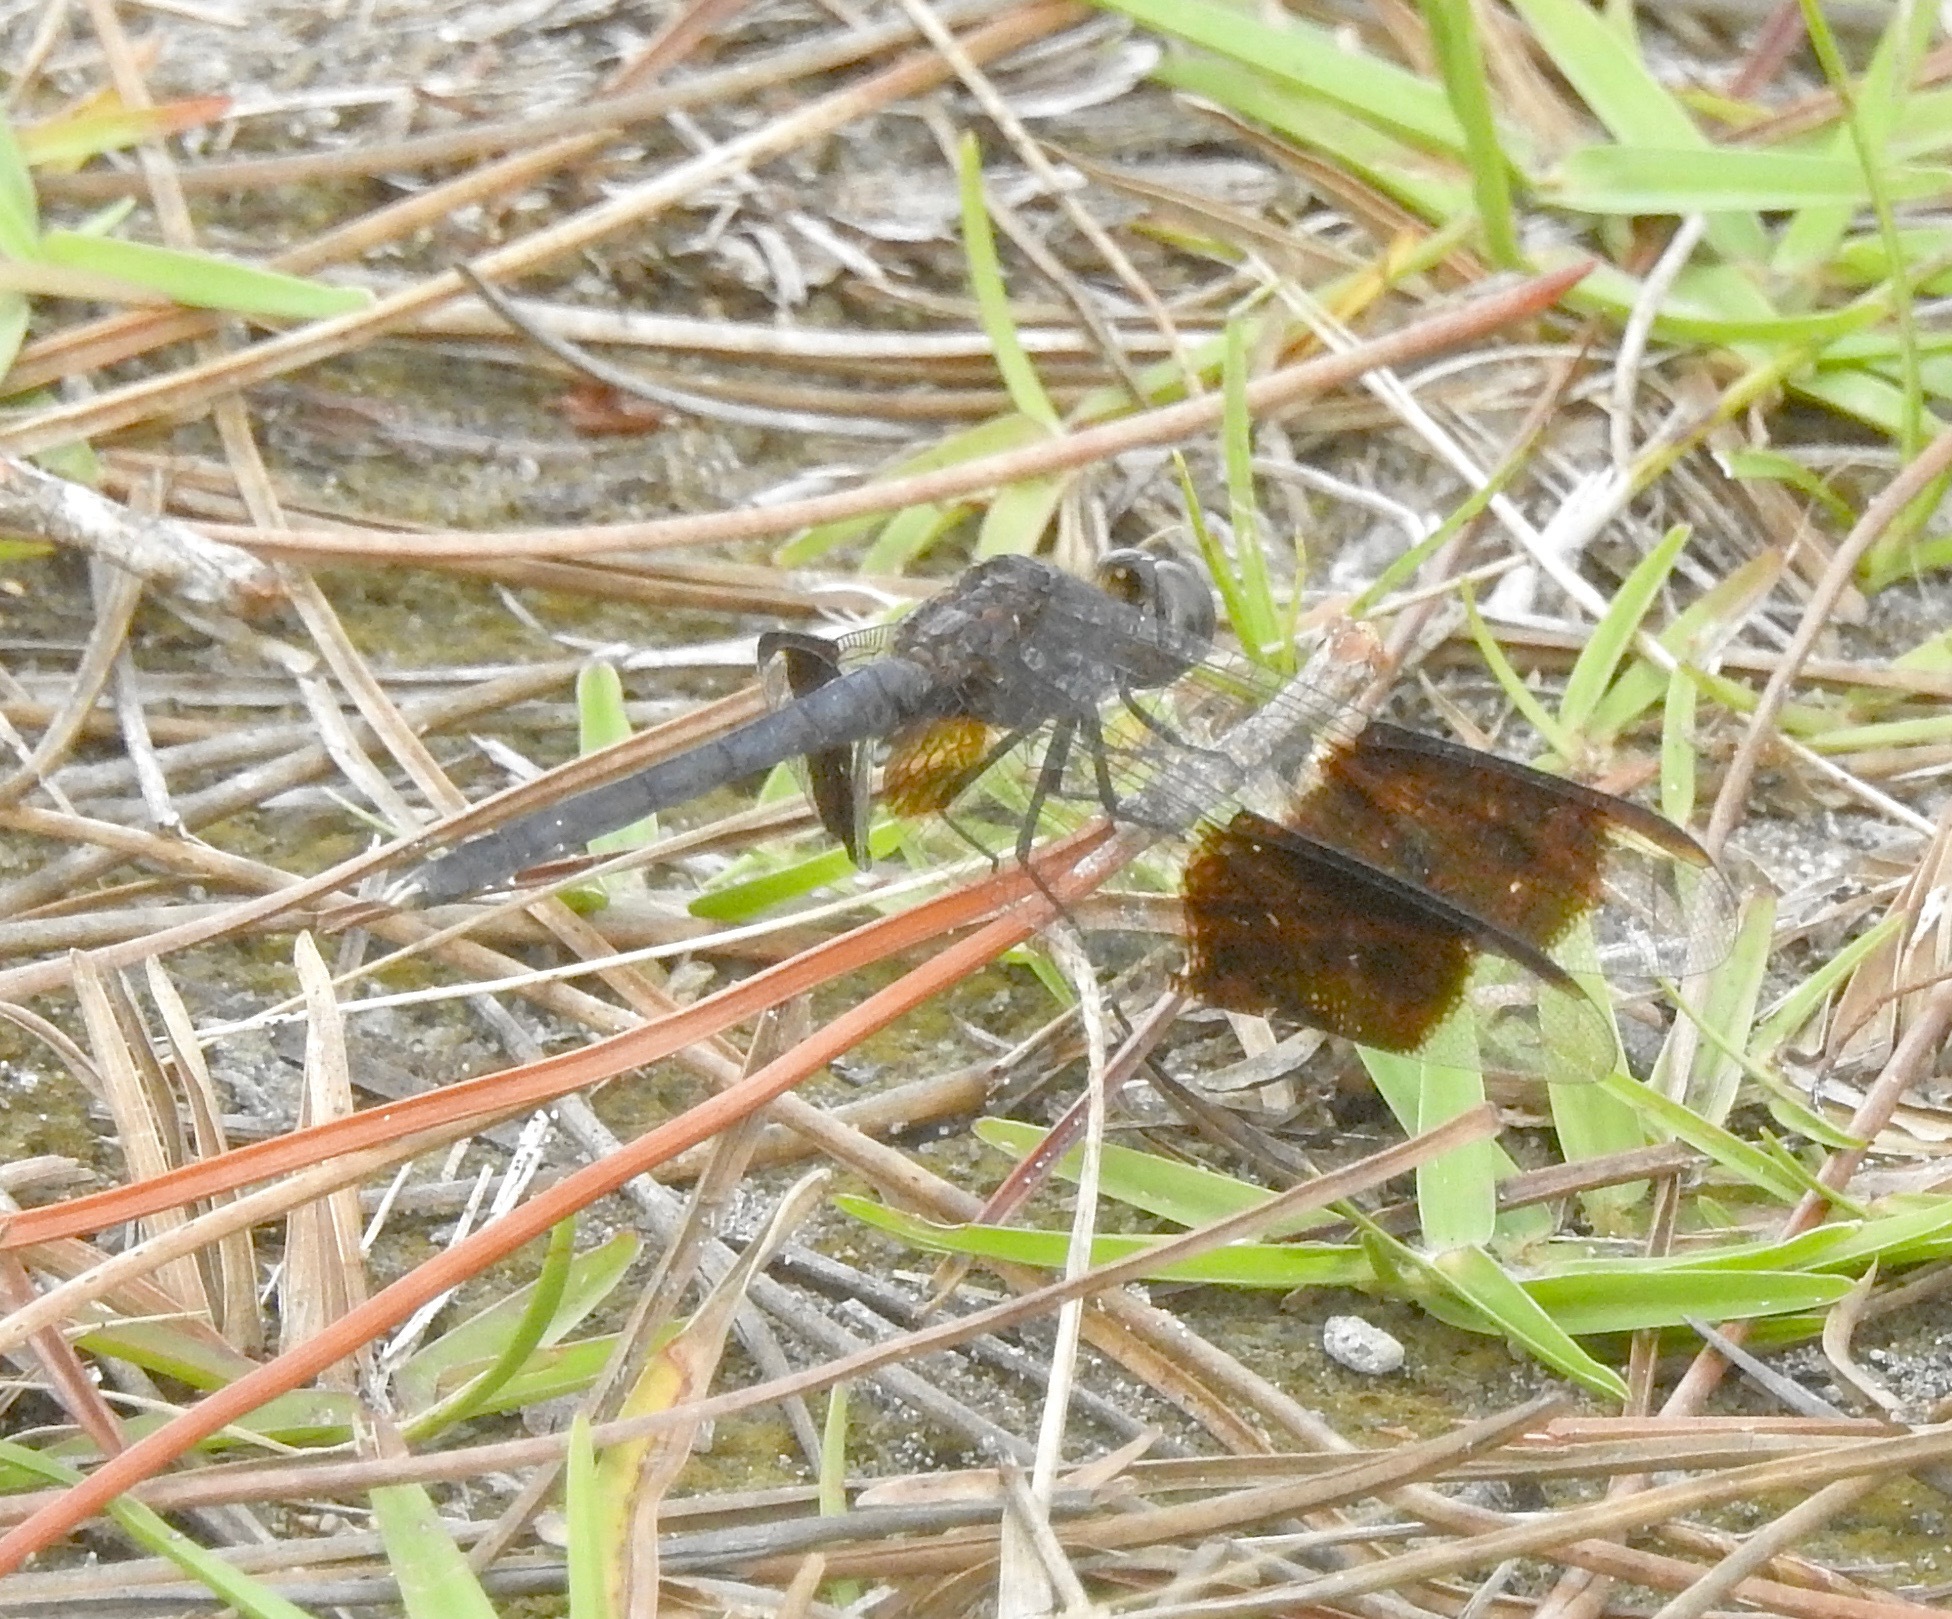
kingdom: Animalia
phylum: Arthropoda
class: Insecta
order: Odonata
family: Libellulidae
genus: Erythrodiplax
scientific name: Erythrodiplax umbrata
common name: Band-winged dragonlet
